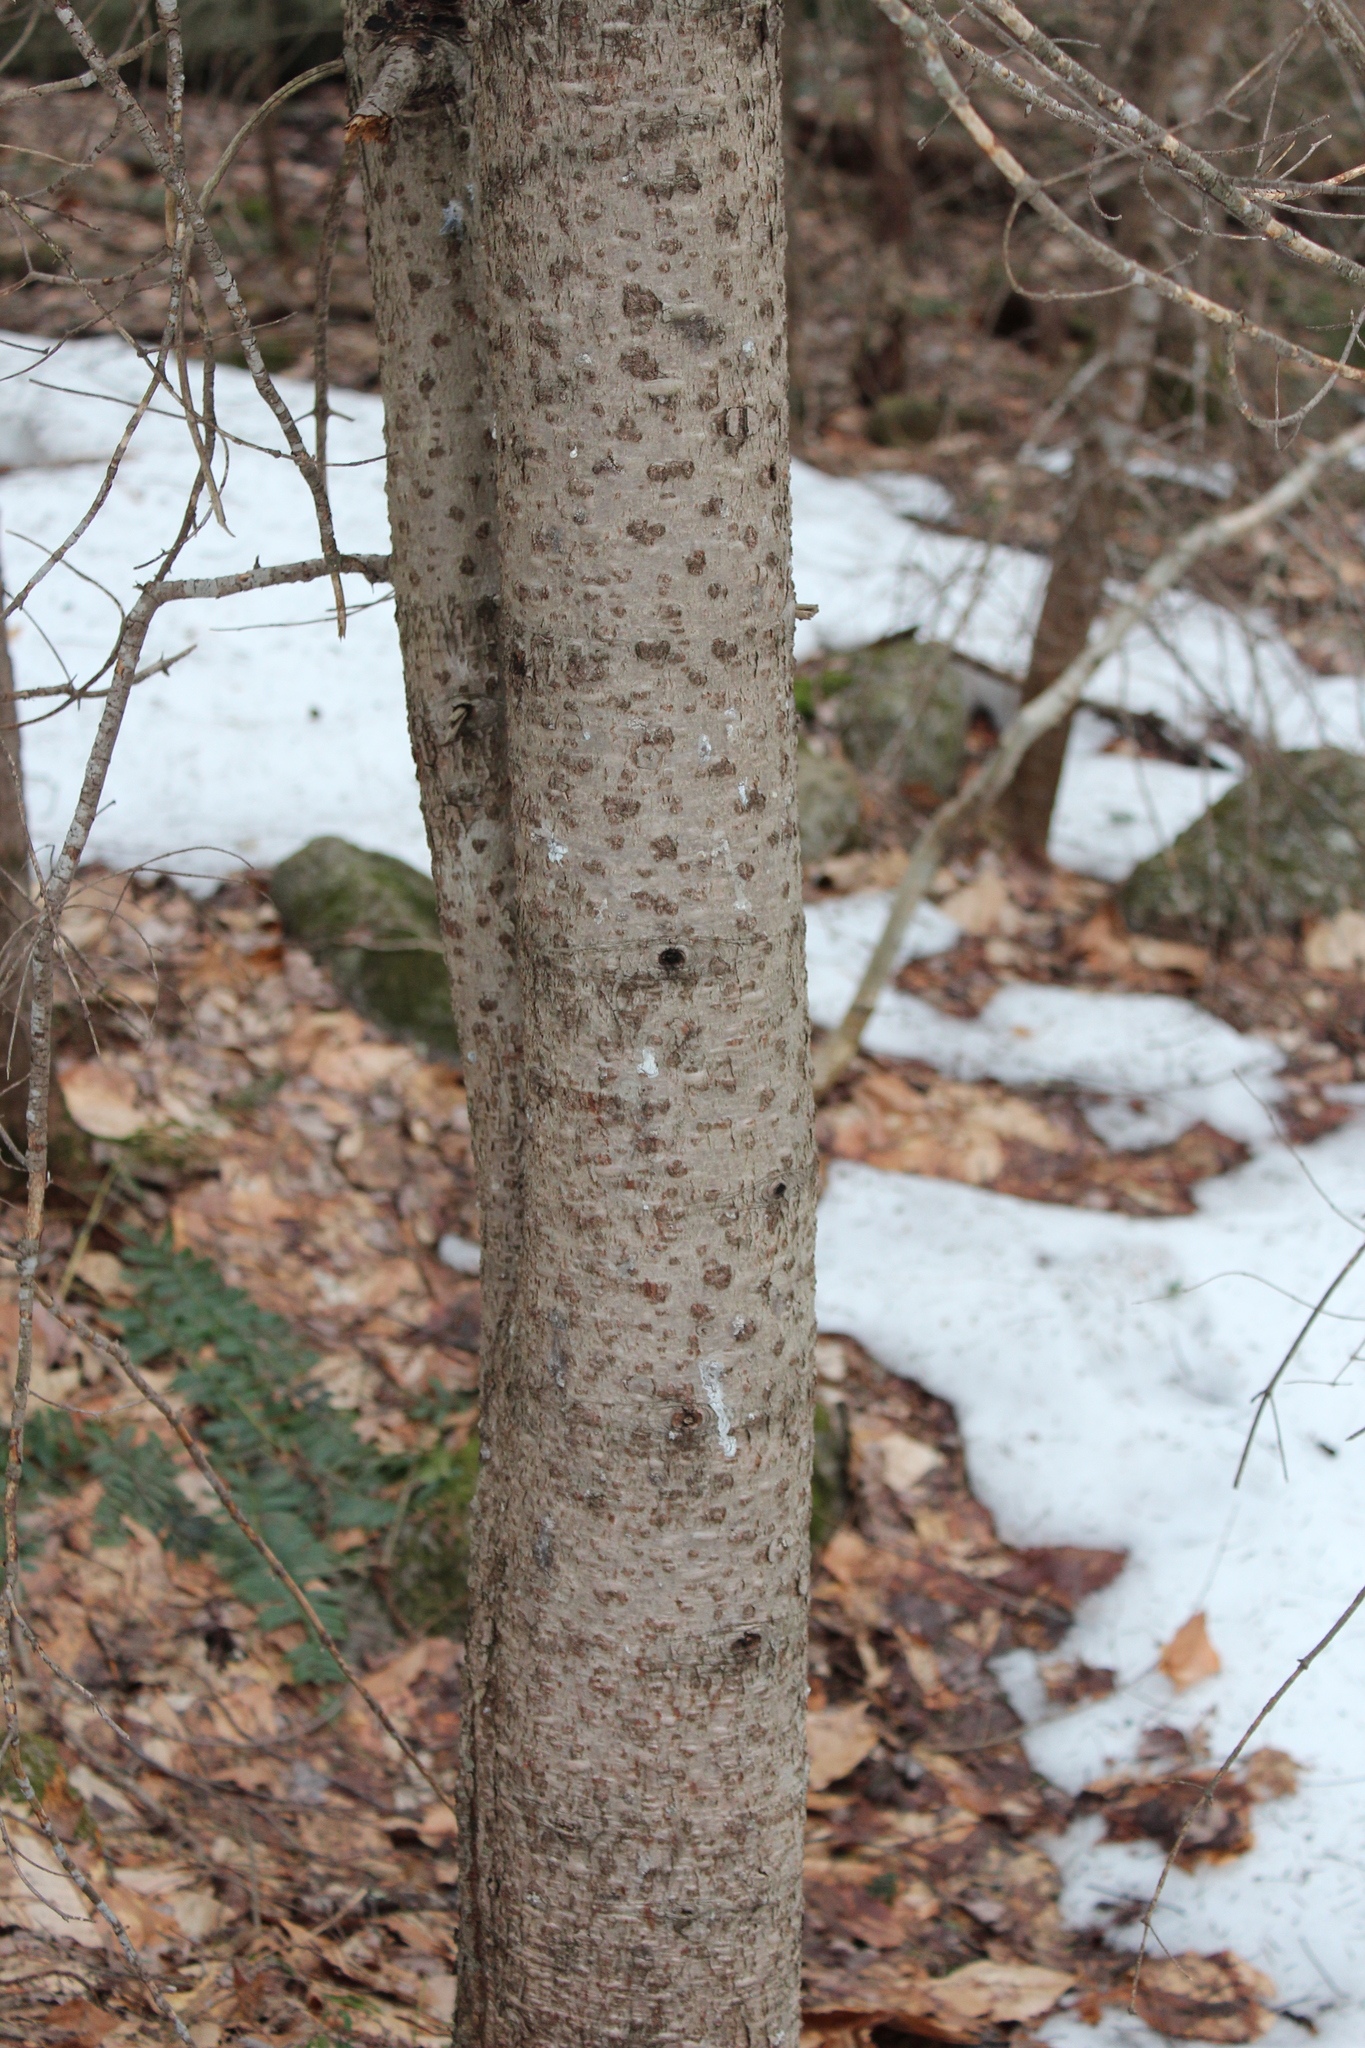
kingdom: Plantae
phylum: Tracheophyta
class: Pinopsida
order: Pinales
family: Pinaceae
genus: Abies
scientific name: Abies balsamea
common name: Balsam fir
